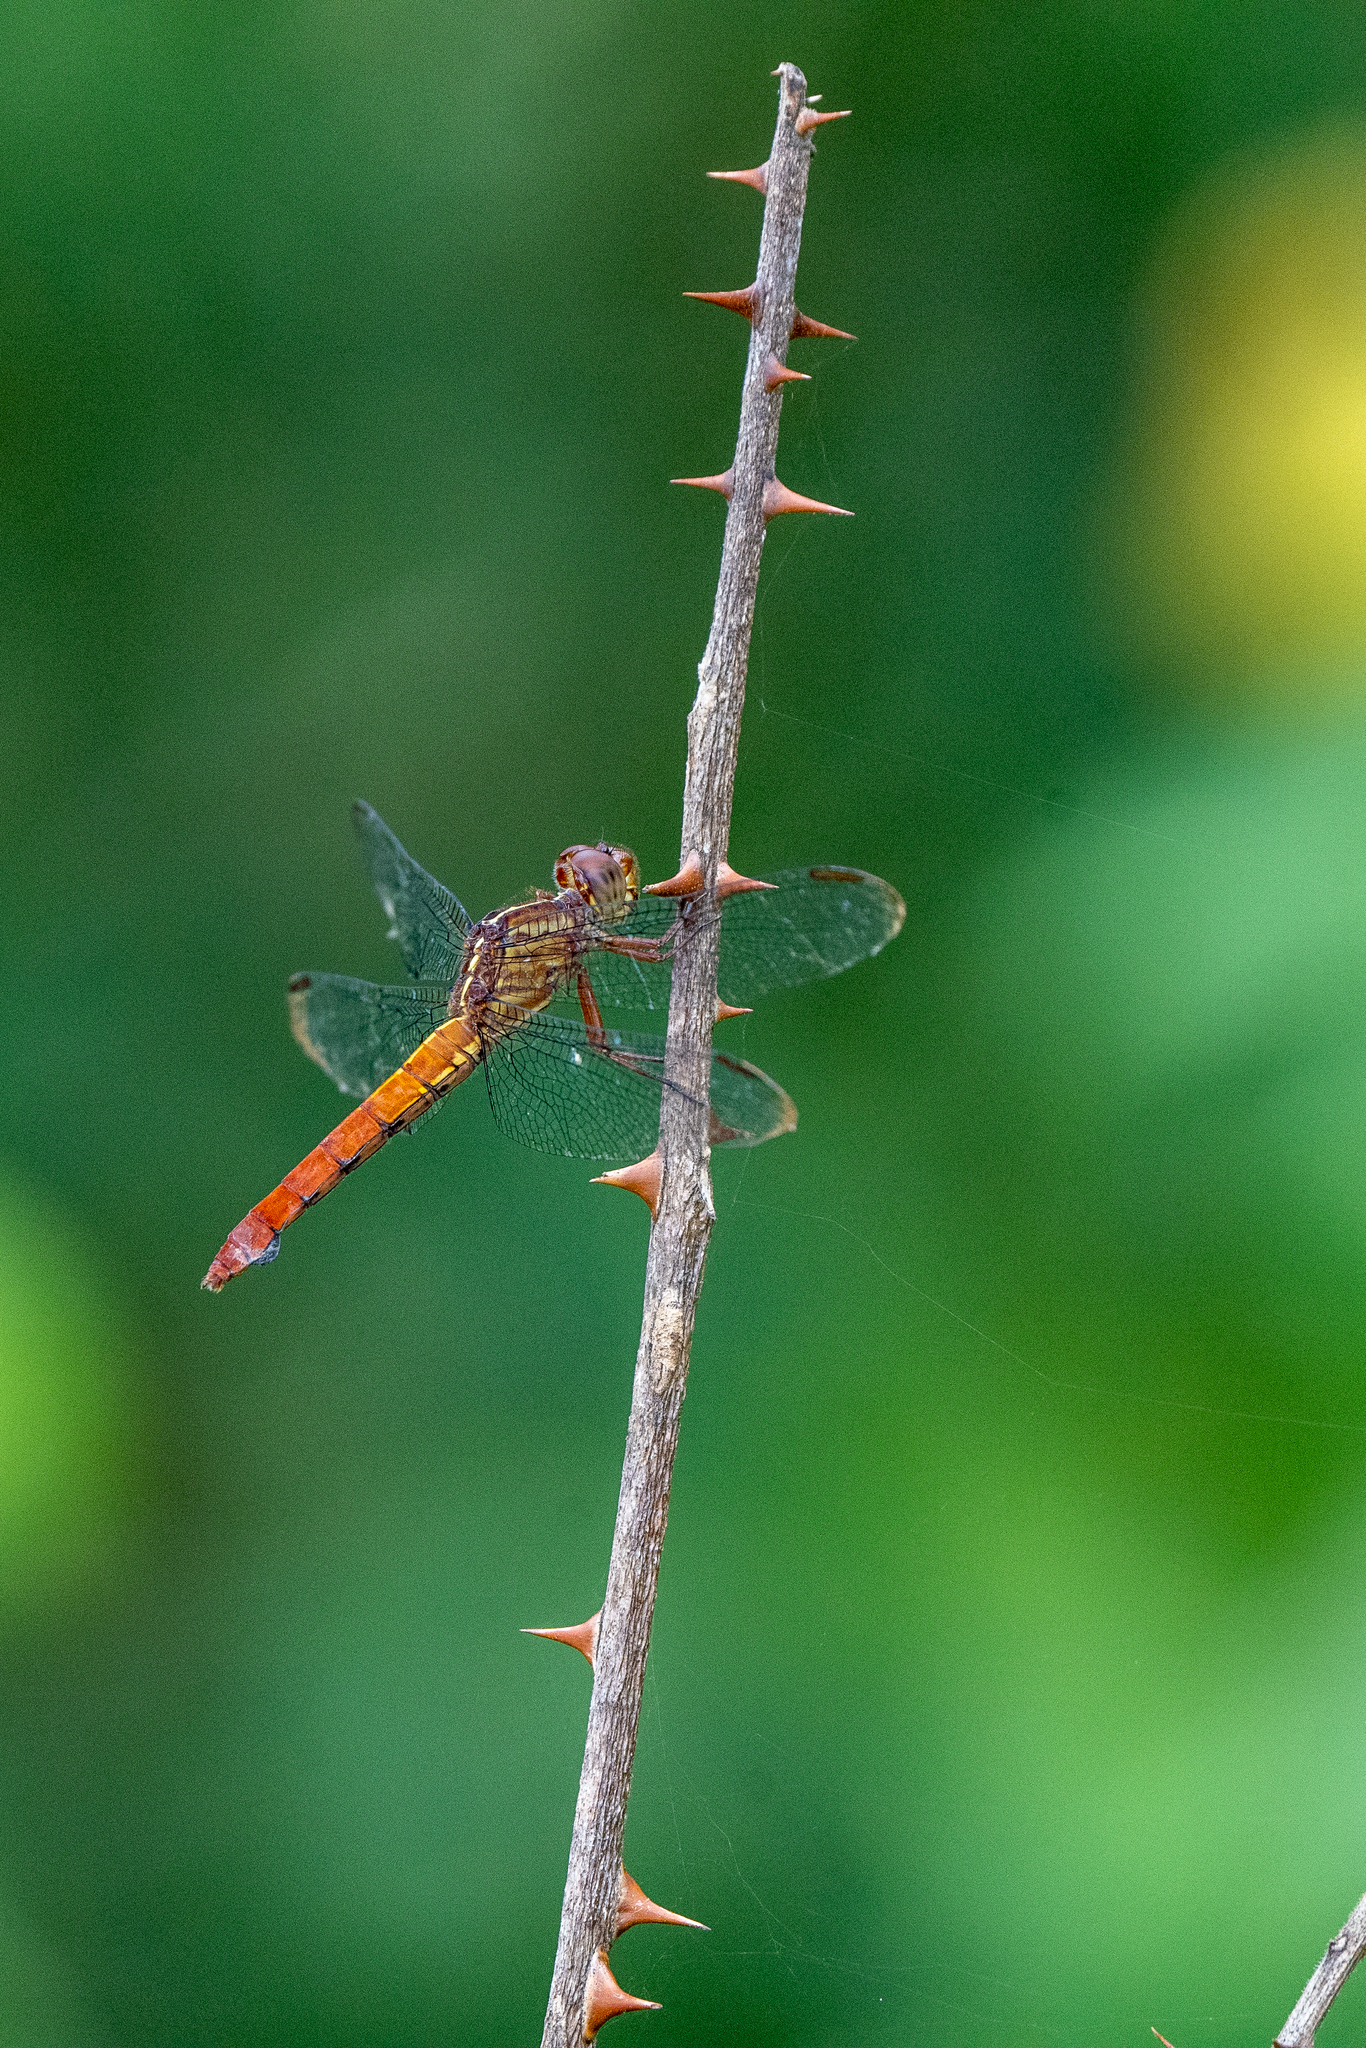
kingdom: Animalia
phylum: Arthropoda
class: Insecta
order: Odonata
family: Libellulidae
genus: Orthemis
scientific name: Orthemis discolor
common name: Carmine skimmer
